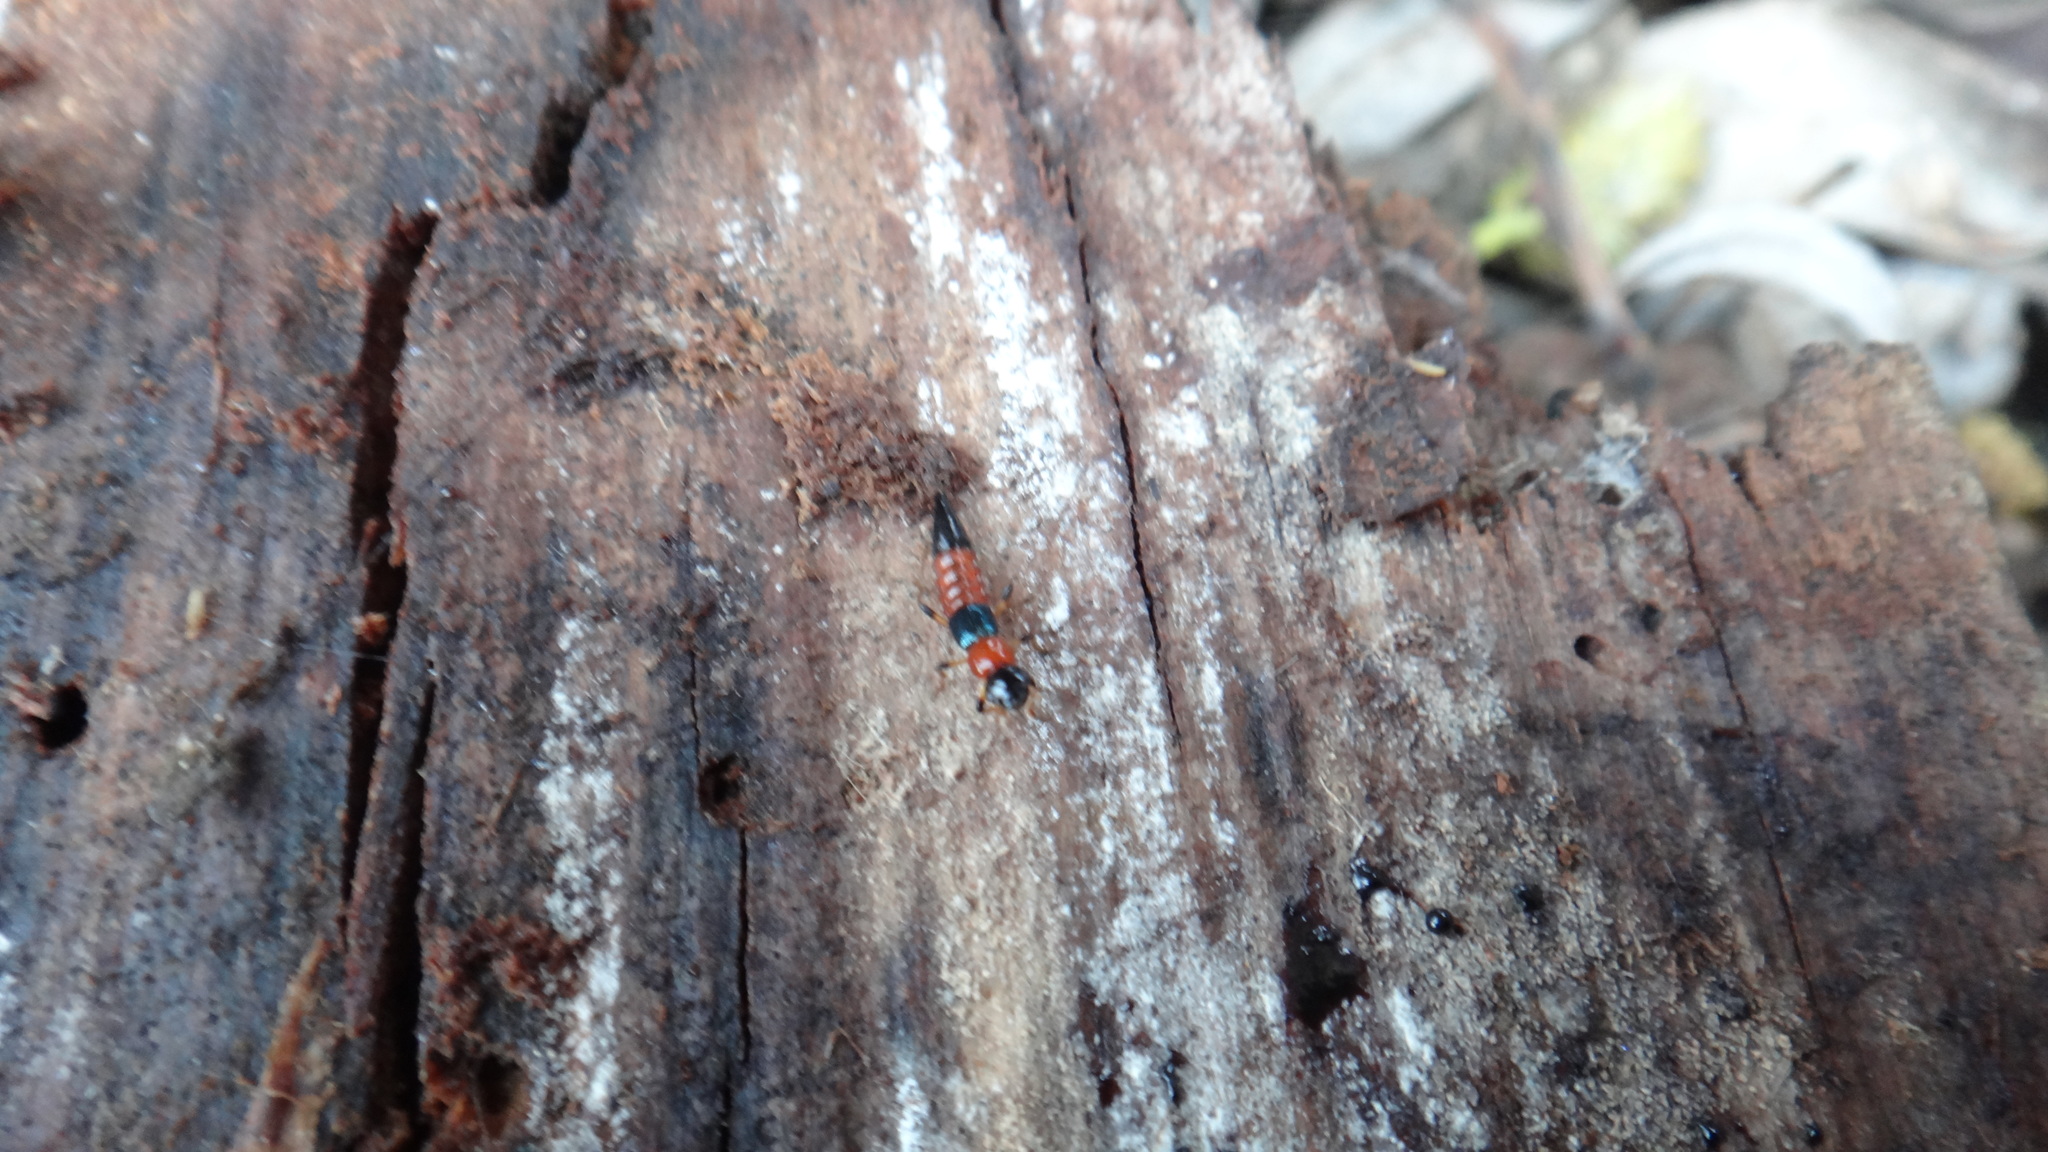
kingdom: Animalia
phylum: Arthropoda
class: Insecta
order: Coleoptera
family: Staphylinidae
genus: Paederus
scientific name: Paederus littoralis
